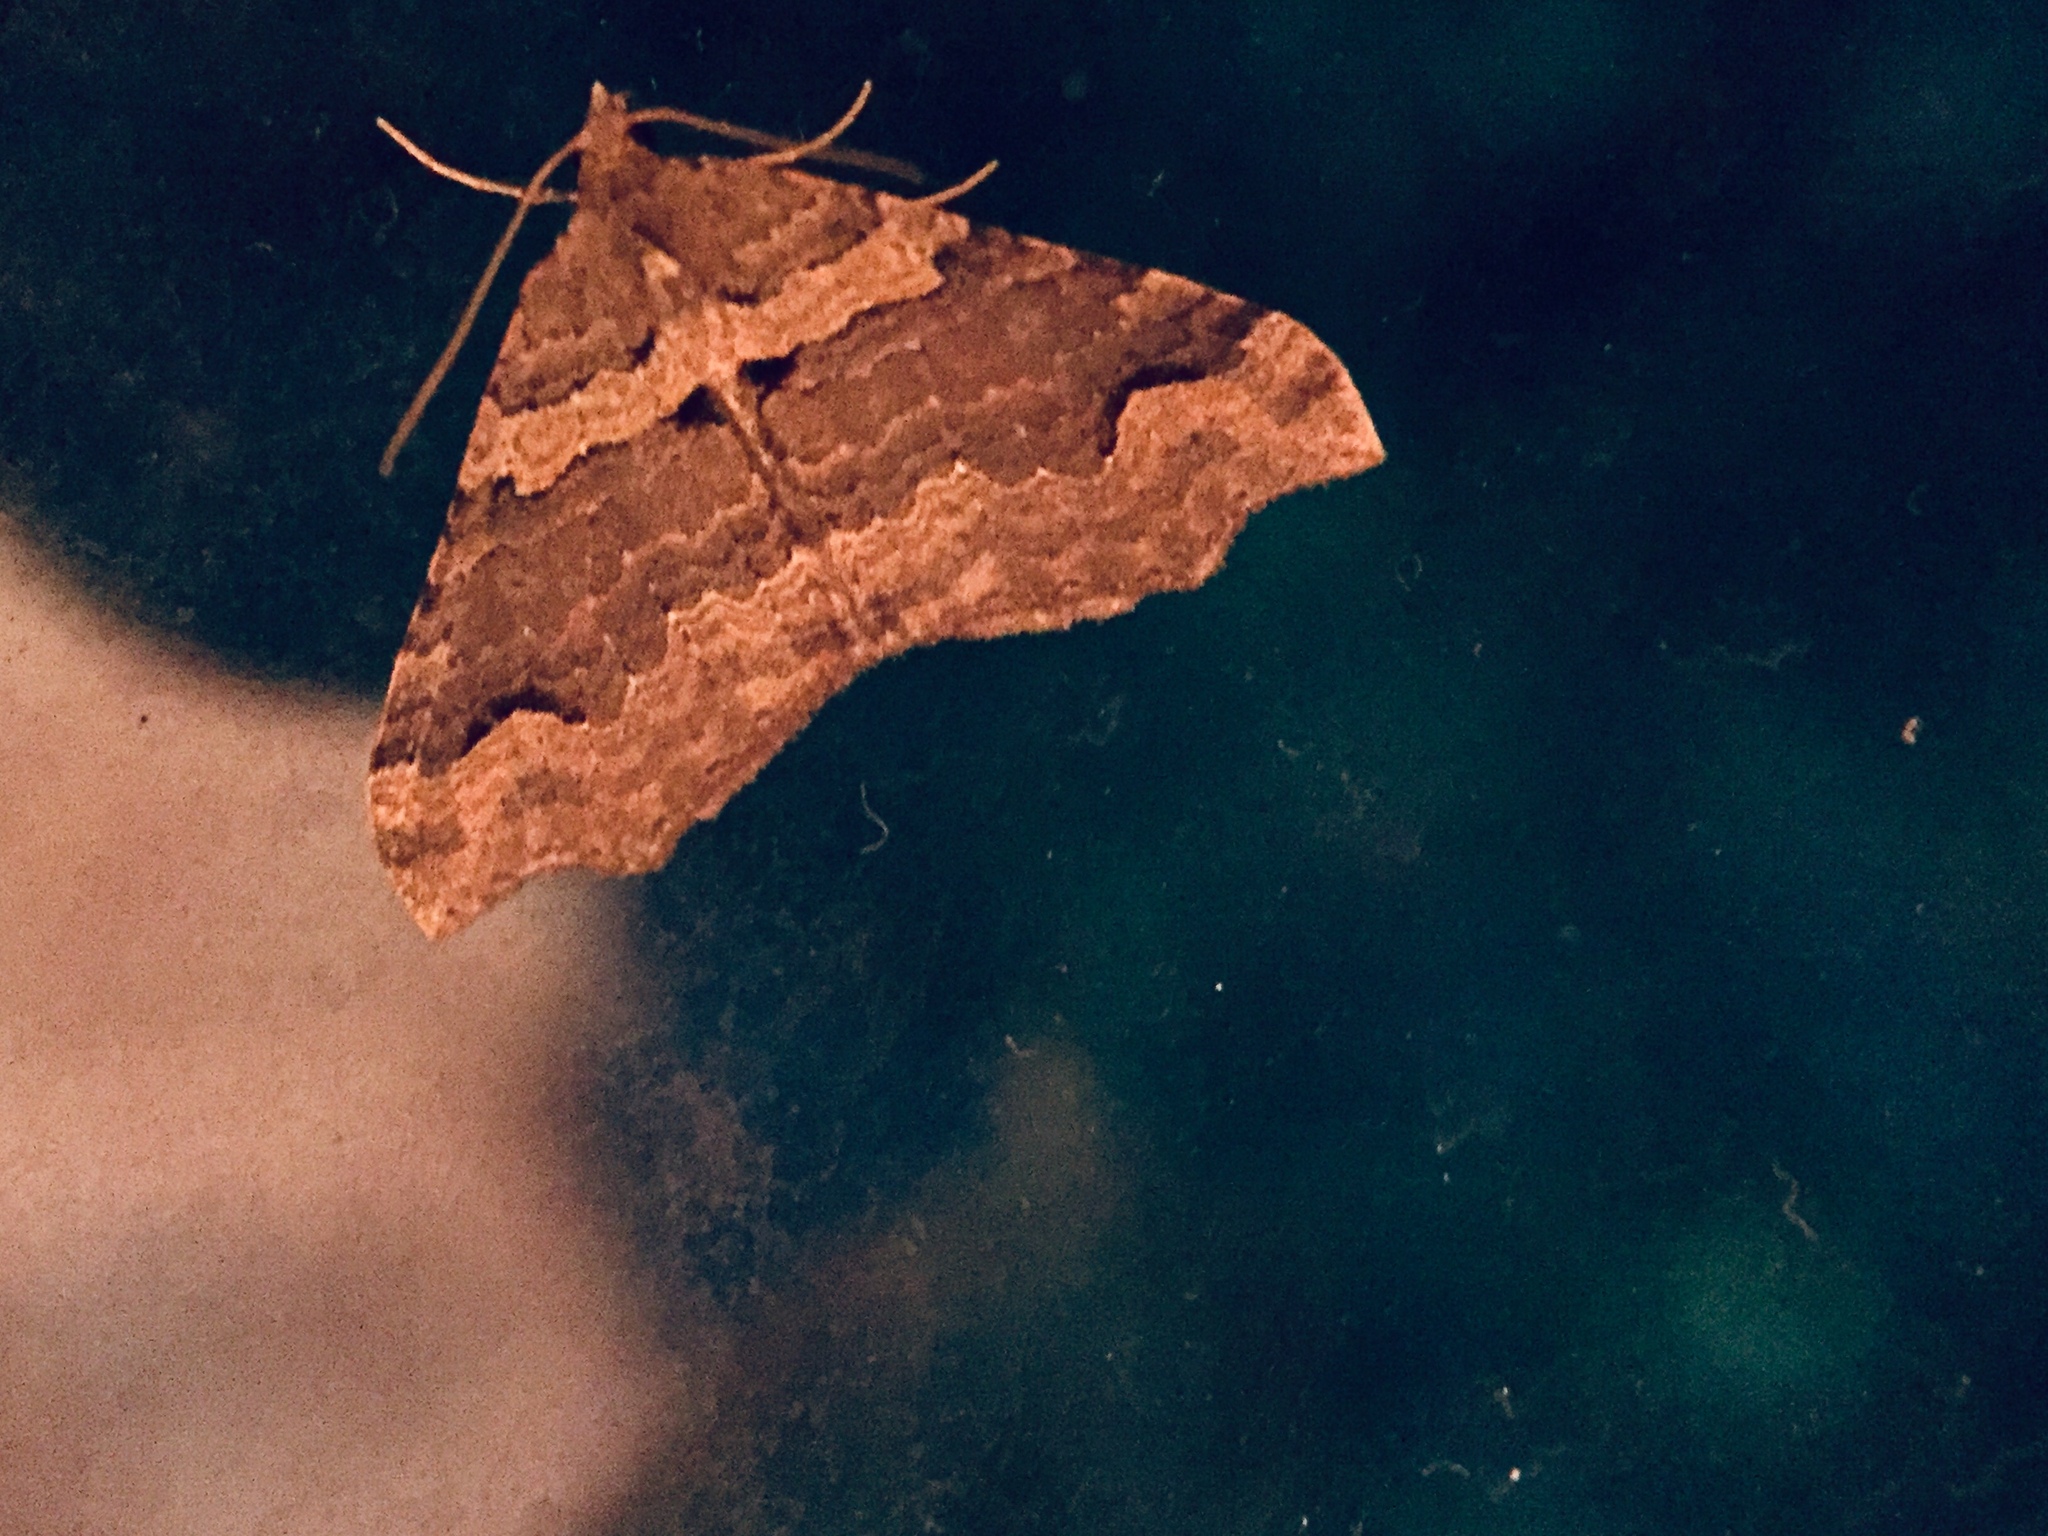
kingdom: Animalia
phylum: Arthropoda
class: Insecta
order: Lepidoptera
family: Geometridae
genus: Austrocidaria
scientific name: Austrocidaria parora
